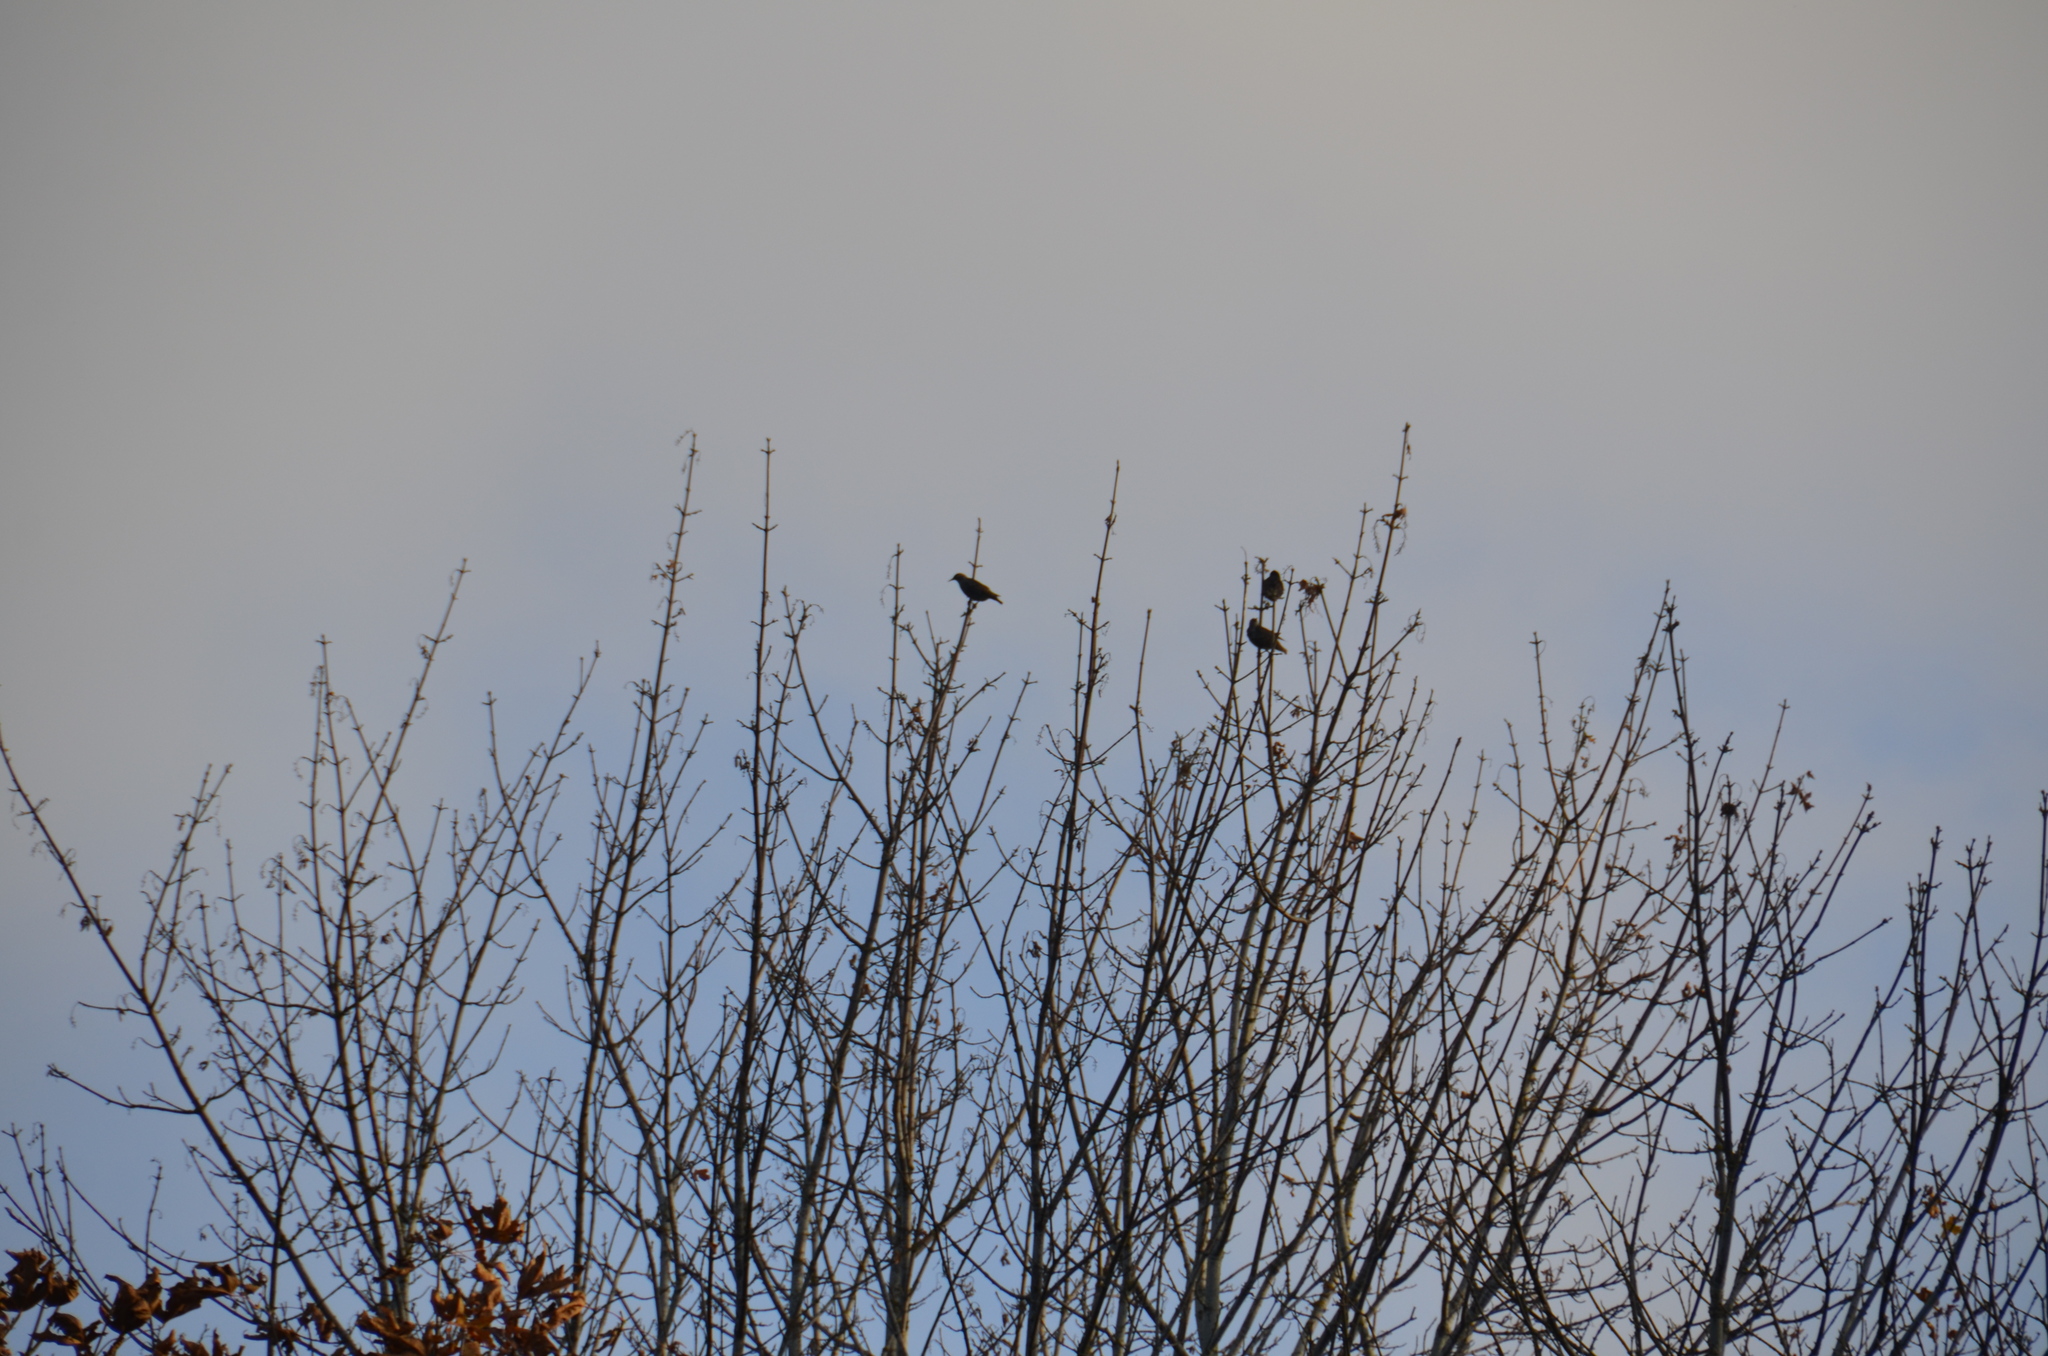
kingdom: Animalia
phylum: Chordata
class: Aves
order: Passeriformes
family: Sturnidae
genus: Sturnus
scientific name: Sturnus vulgaris
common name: Common starling
